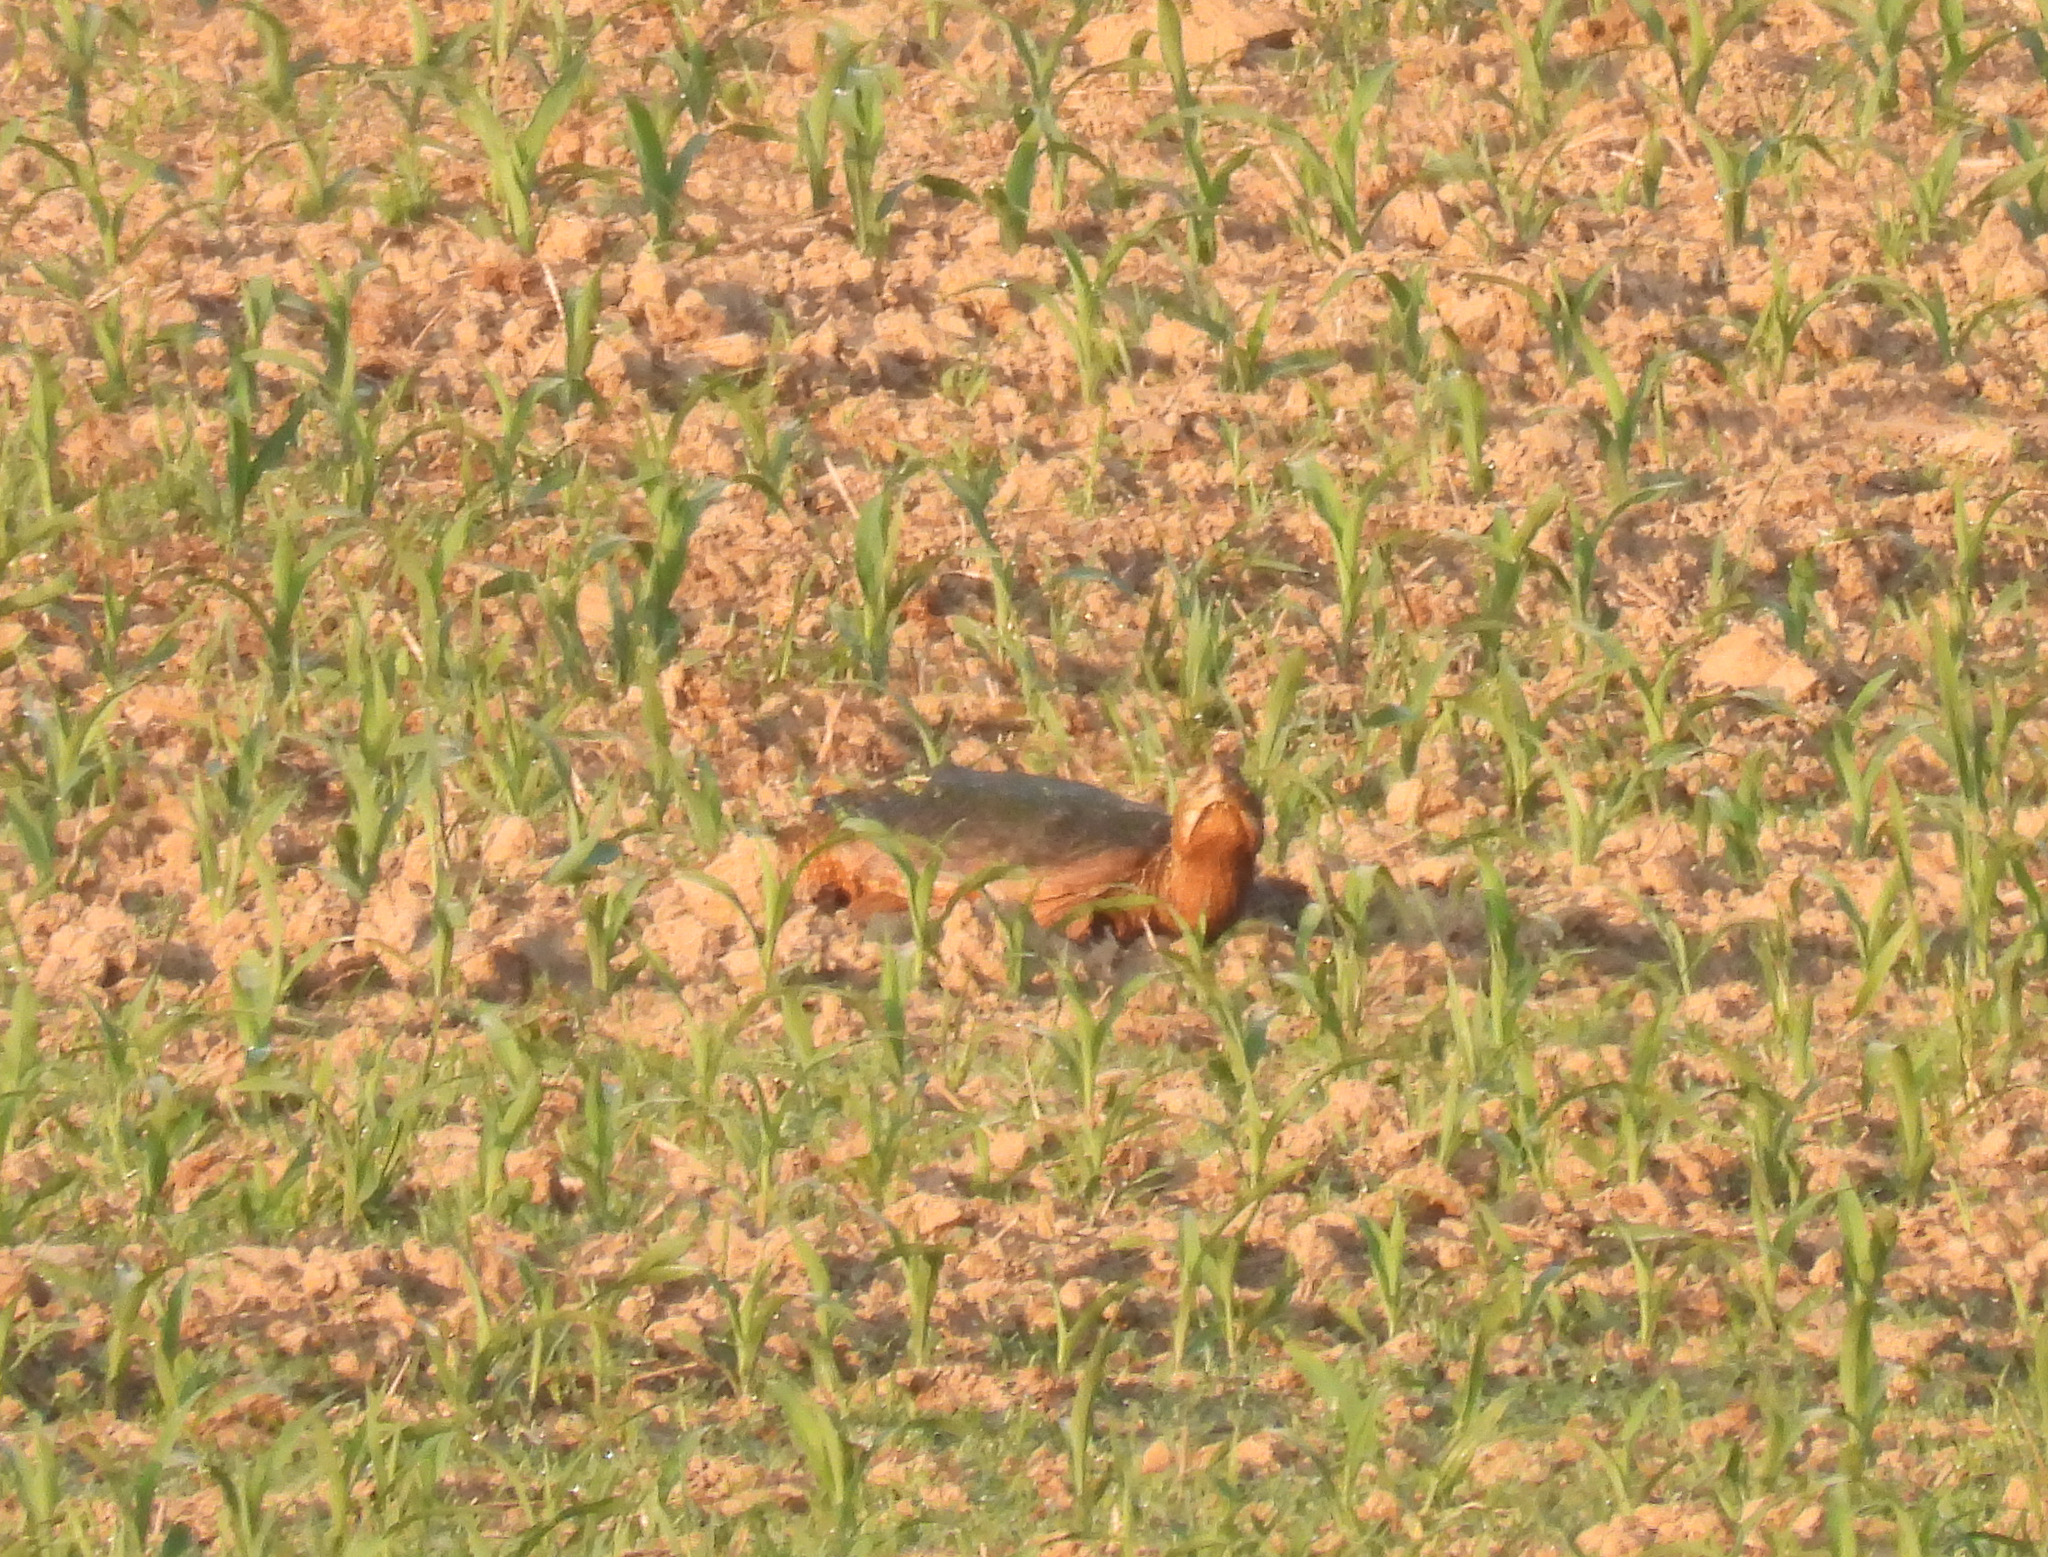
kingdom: Animalia
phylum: Chordata
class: Testudines
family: Chelydridae
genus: Chelydra
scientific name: Chelydra serpentina
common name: Common snapping turtle
